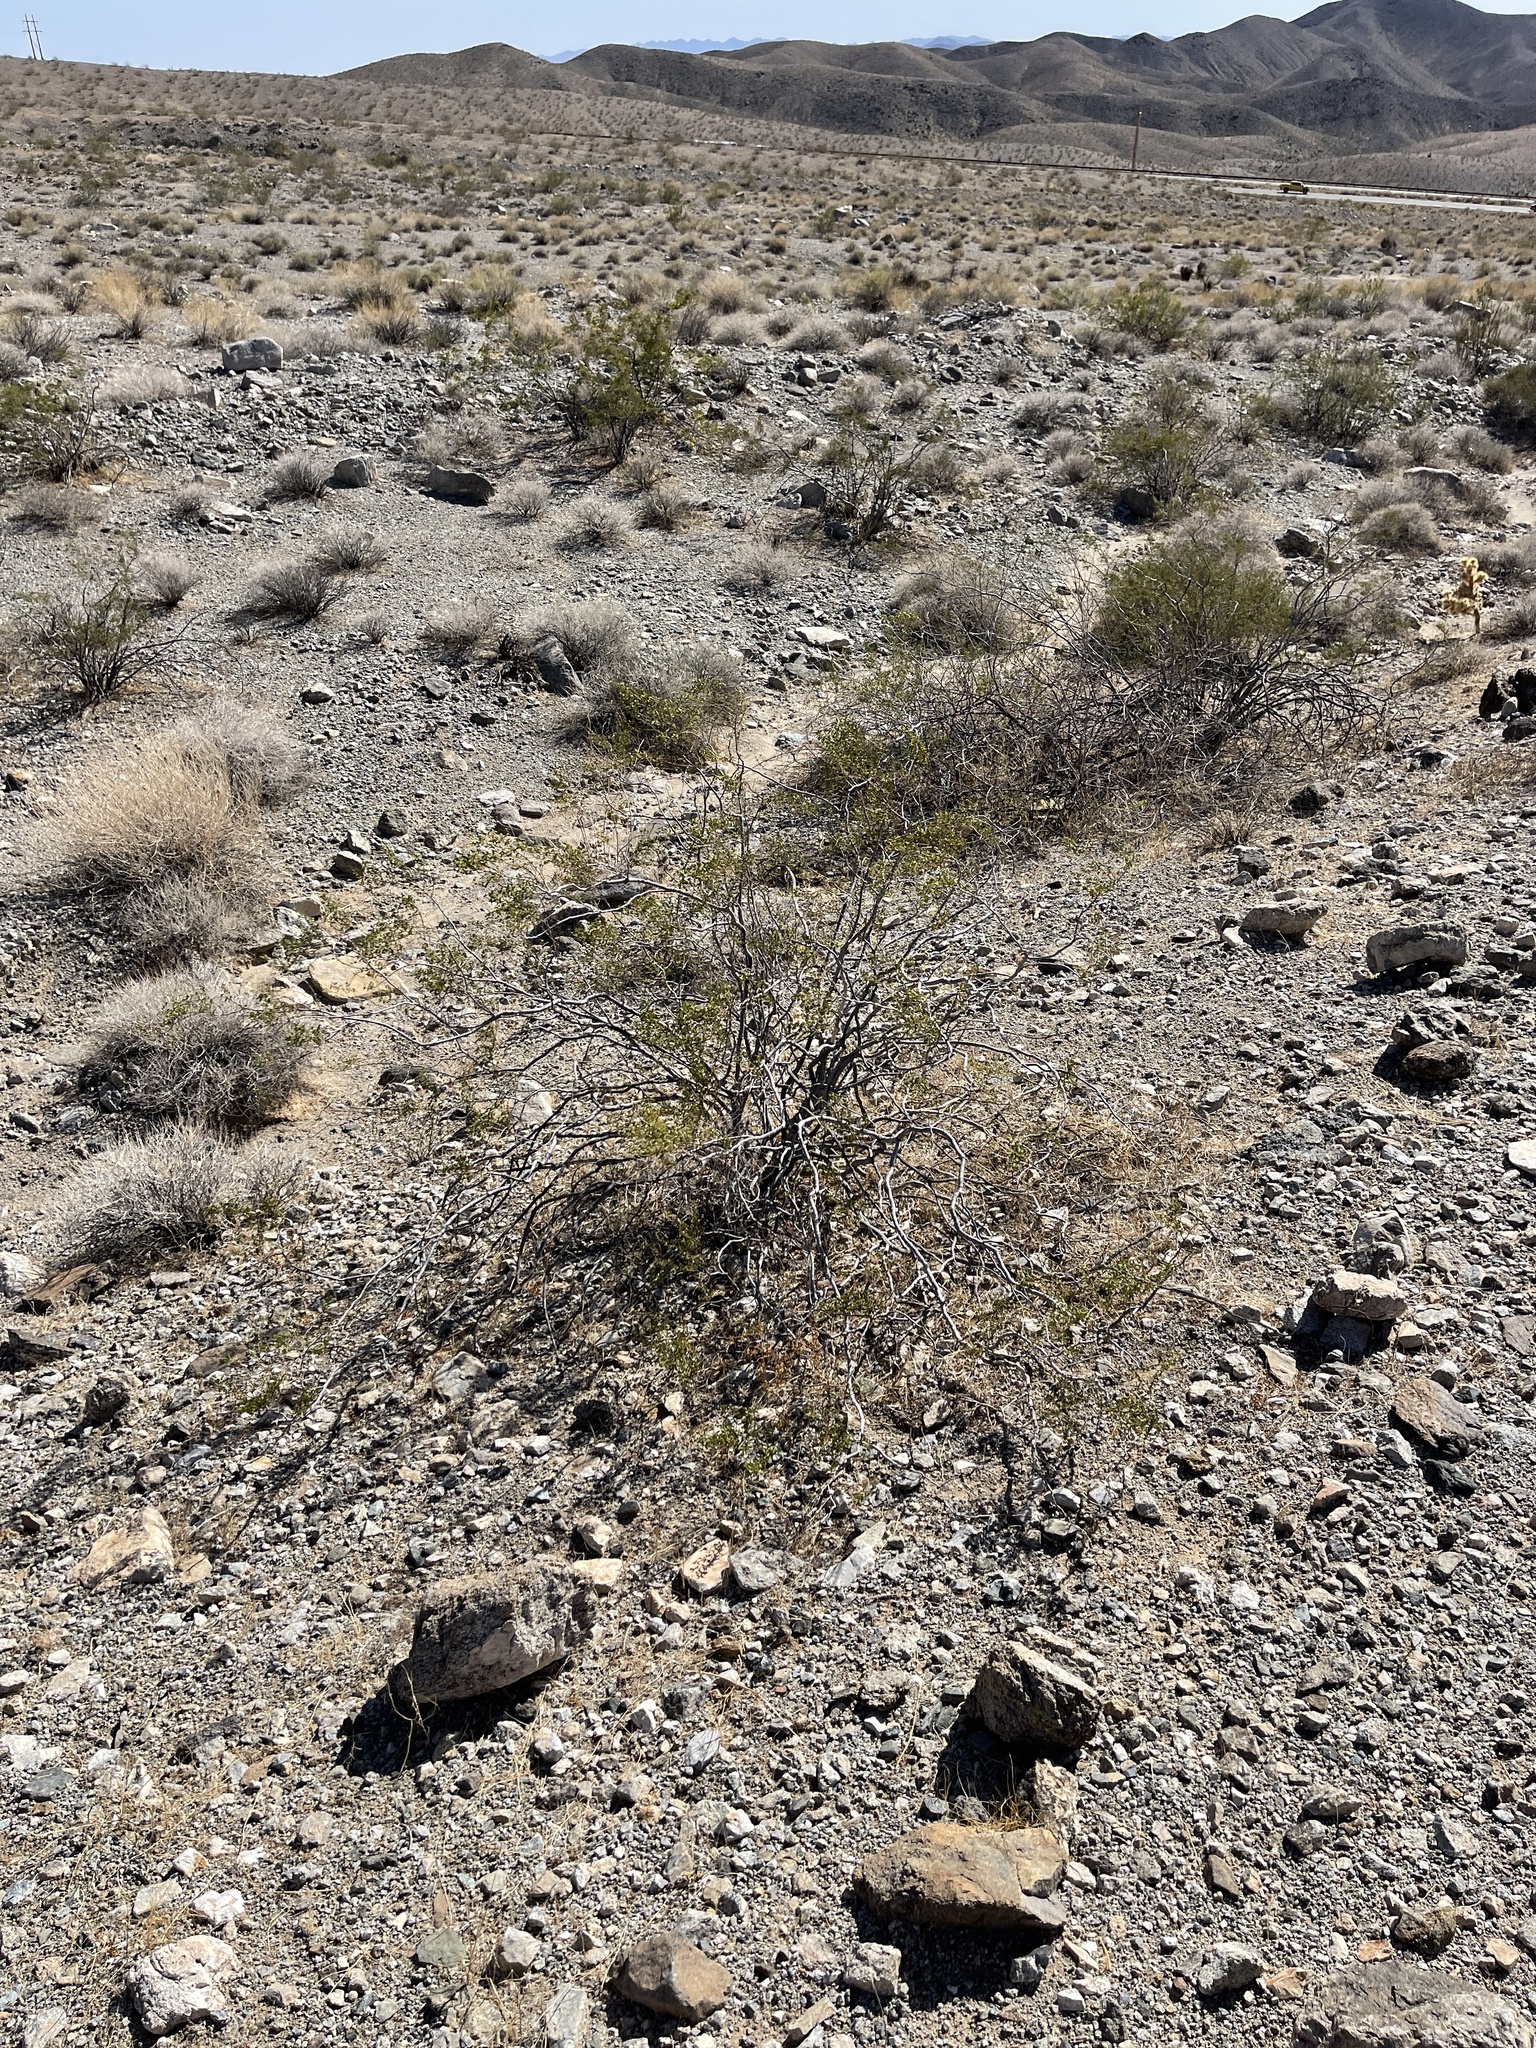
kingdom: Plantae
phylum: Tracheophyta
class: Magnoliopsida
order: Zygophyllales
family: Zygophyllaceae
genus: Larrea
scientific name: Larrea tridentata
